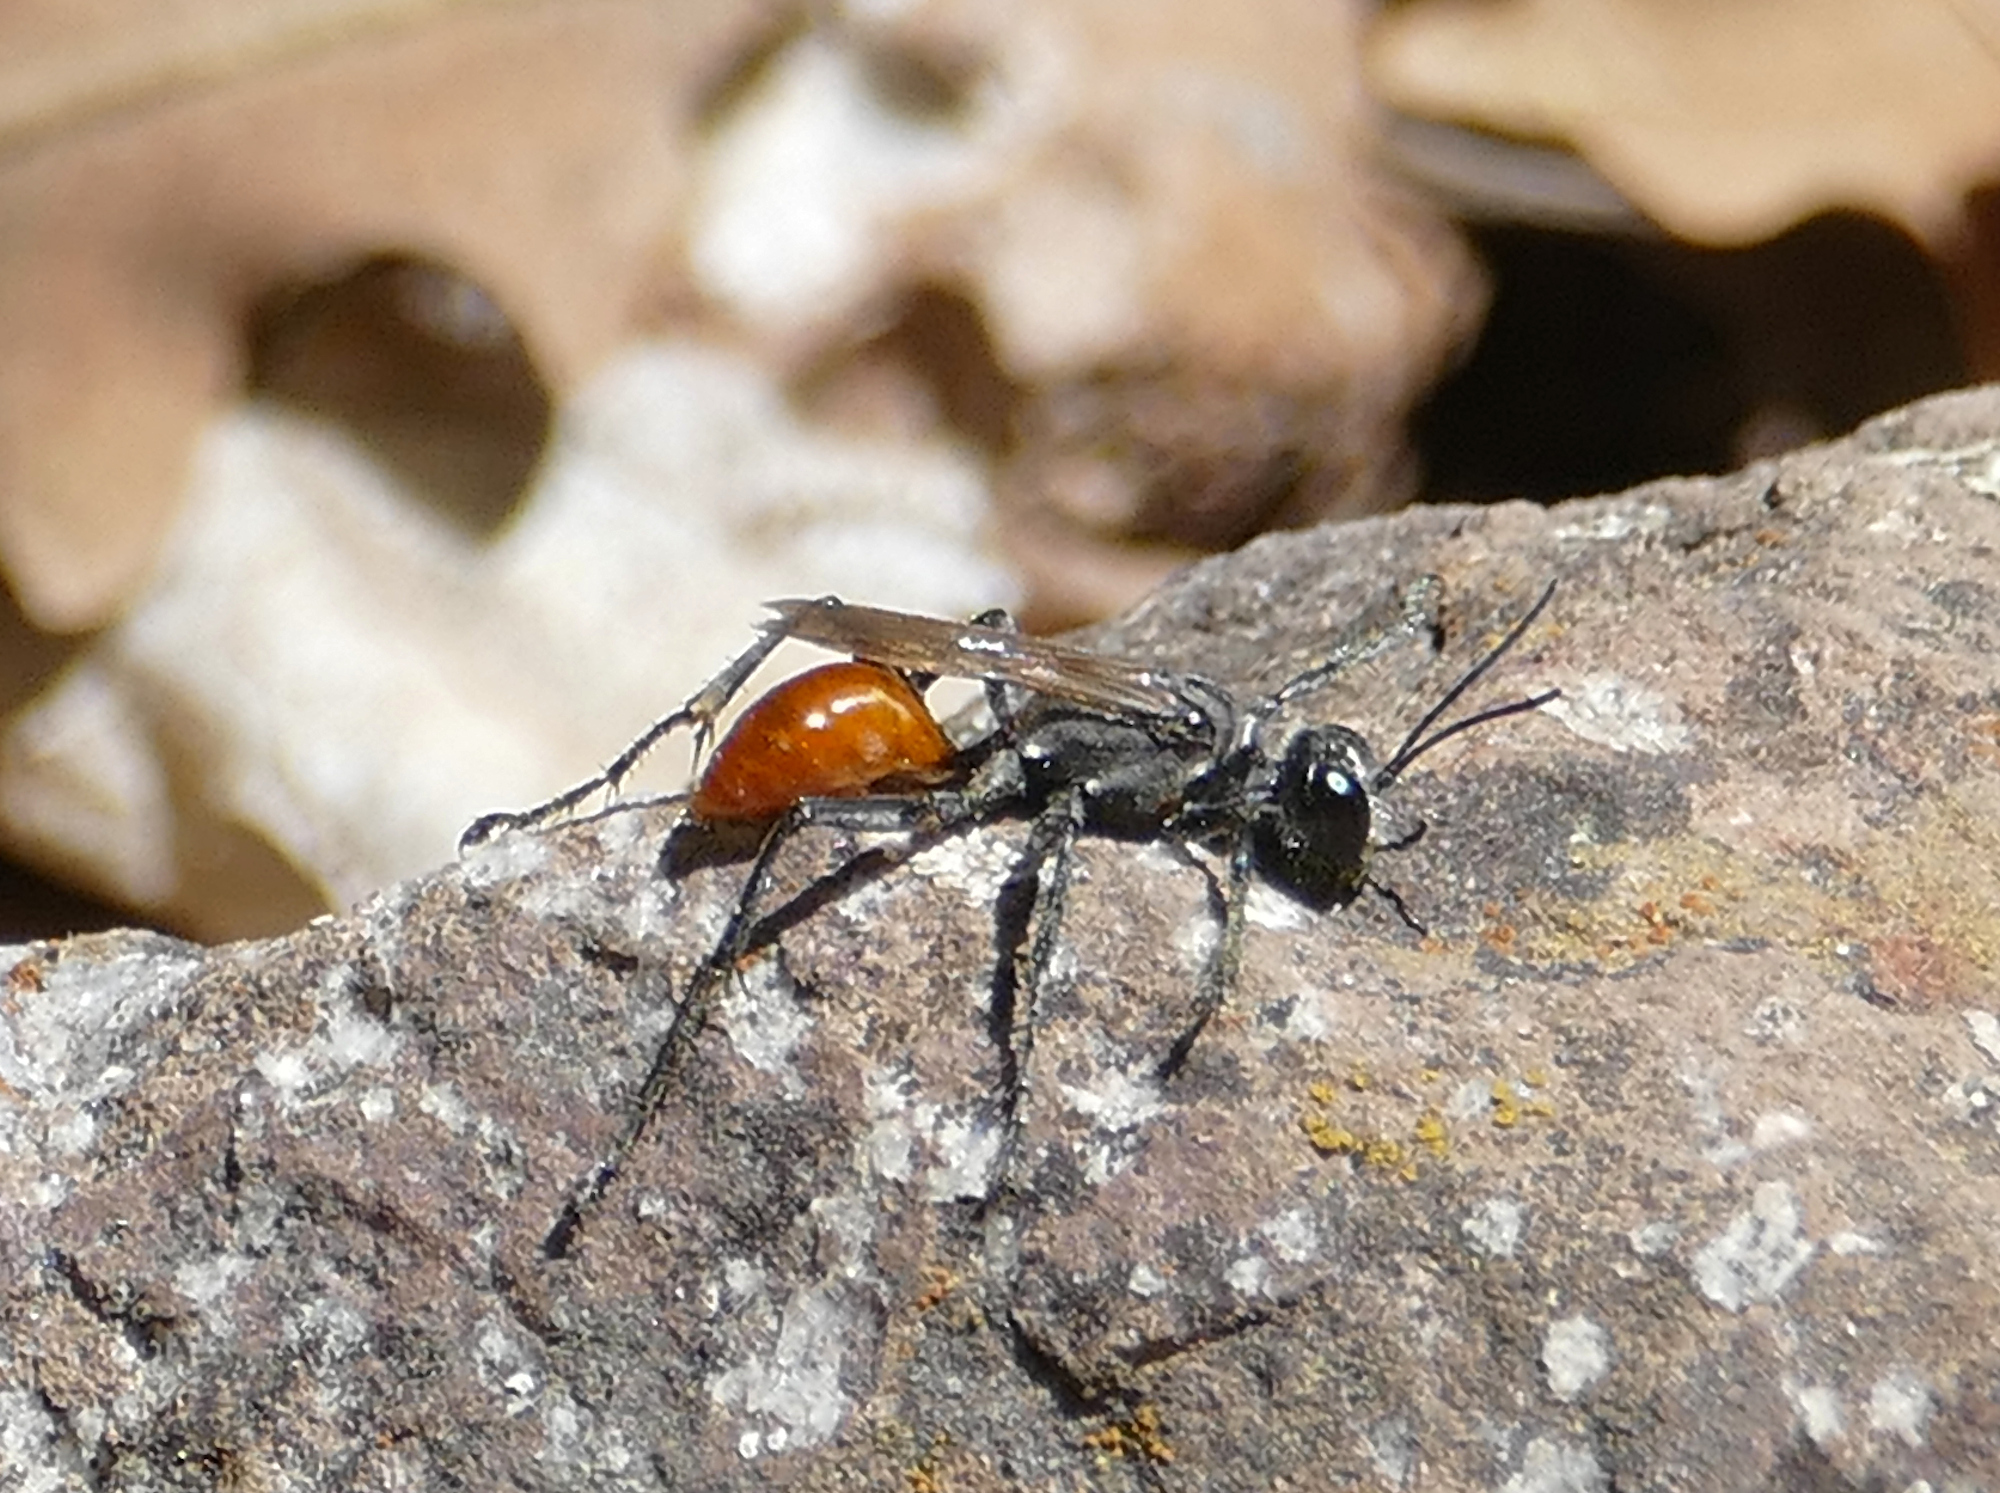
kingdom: Animalia
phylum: Arthropoda
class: Insecta
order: Hymenoptera
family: Sphecidae
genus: Prionyx
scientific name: Prionyx
